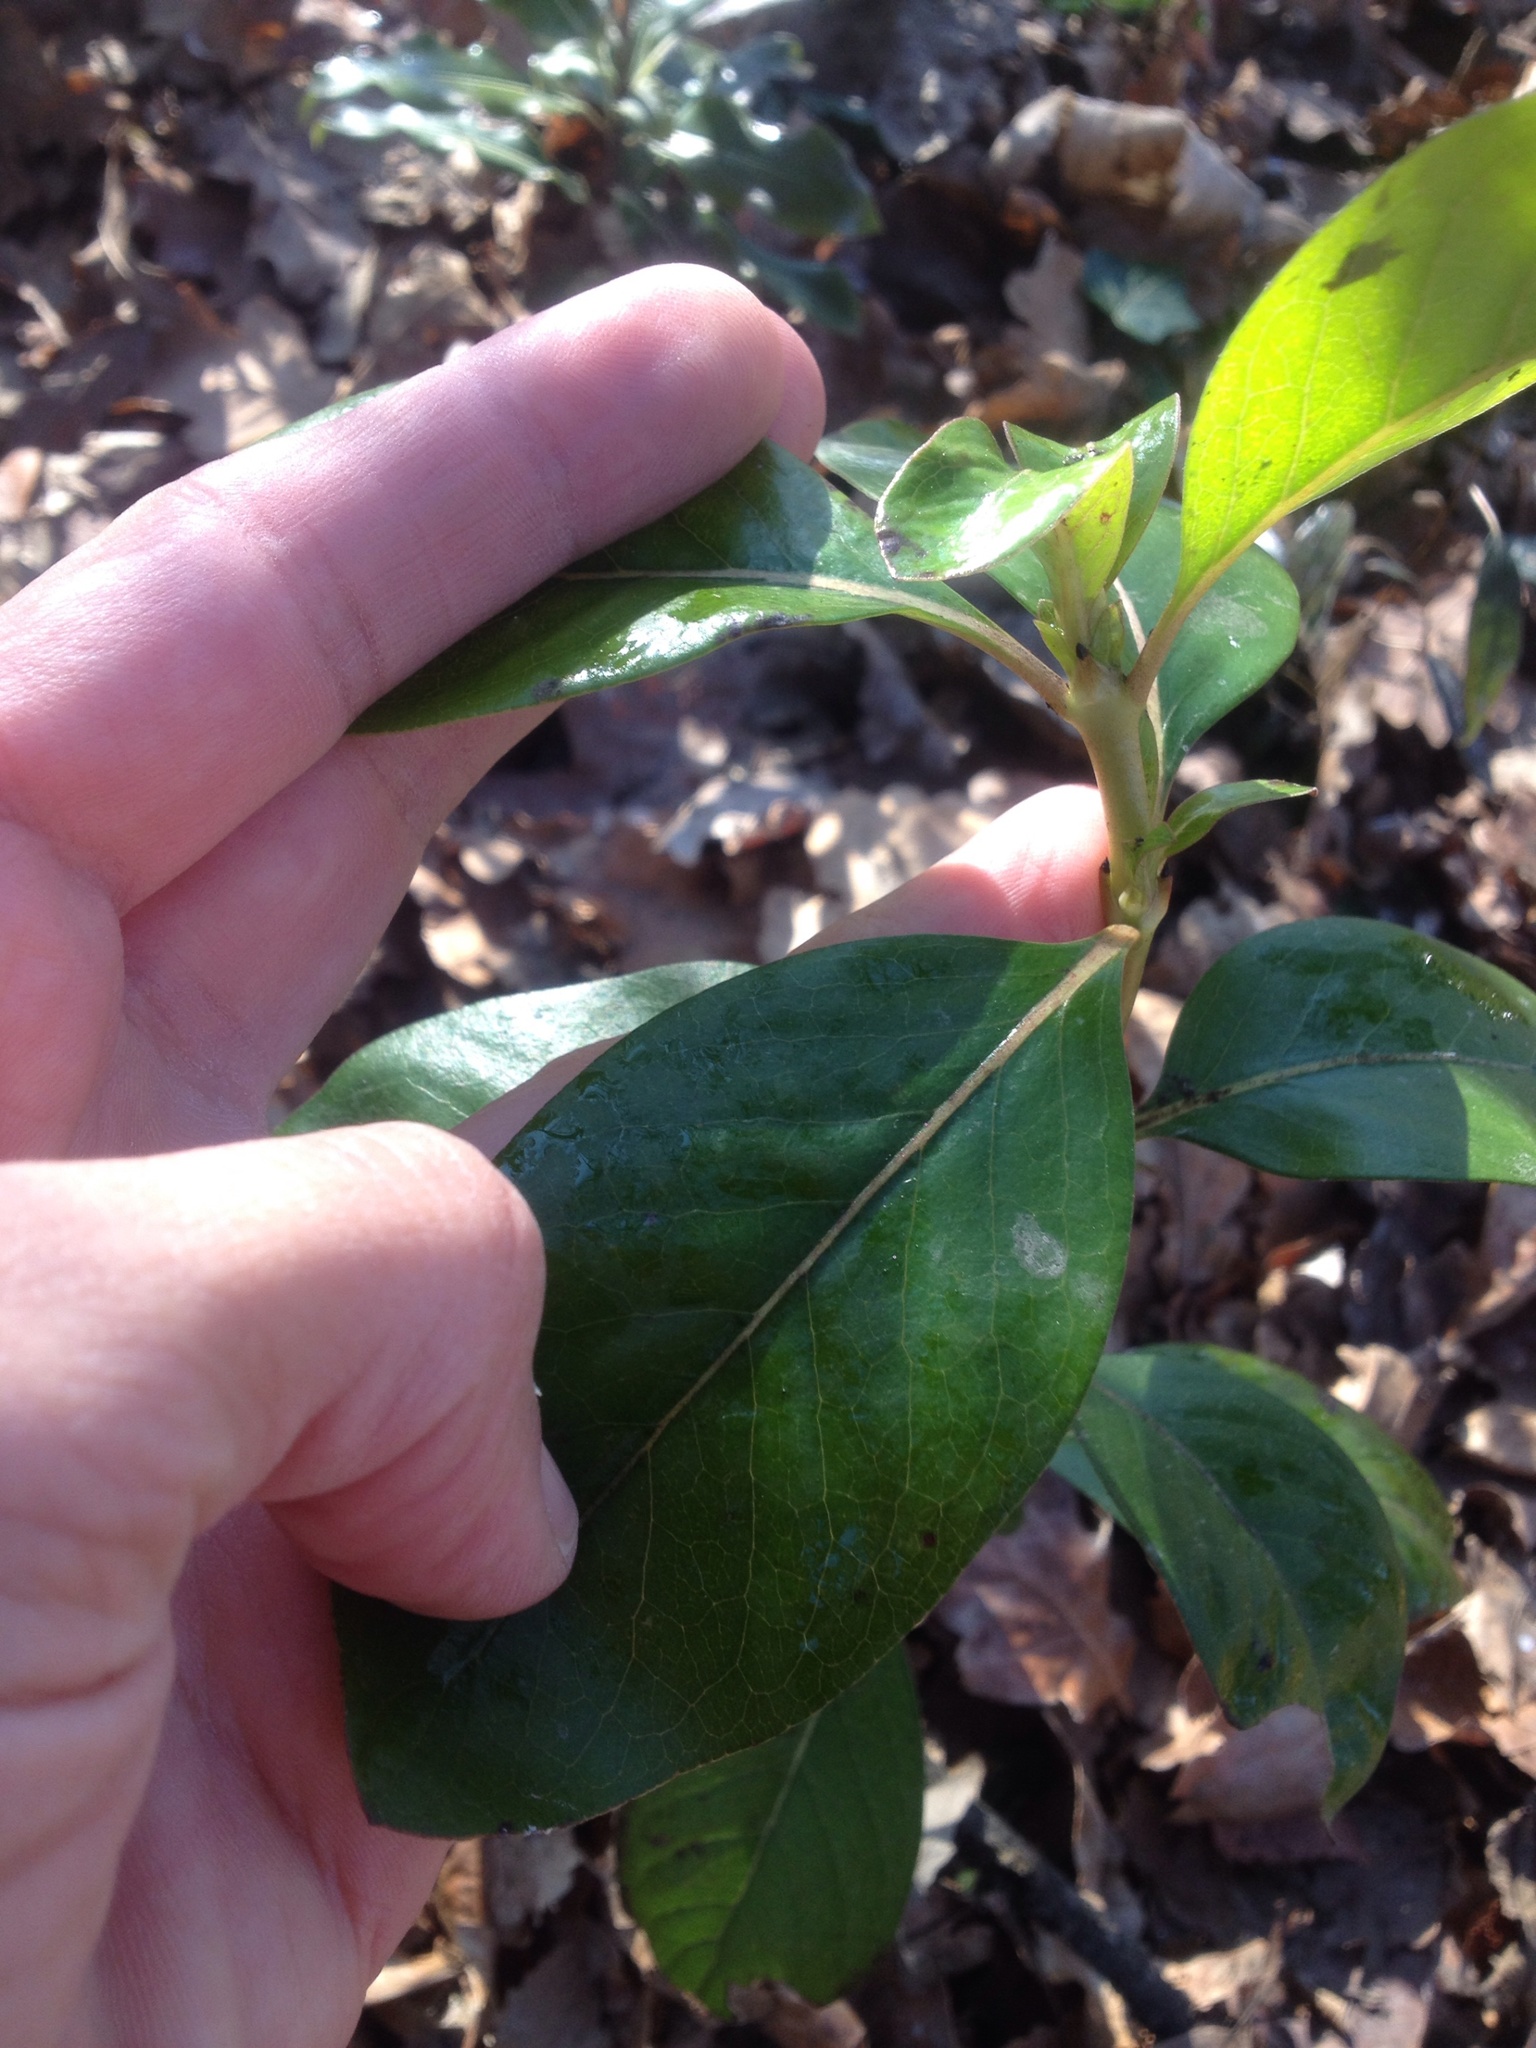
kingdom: Plantae
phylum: Tracheophyta
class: Magnoliopsida
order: Gentianales
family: Rubiaceae
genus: Coprosma
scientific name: Coprosma robusta
